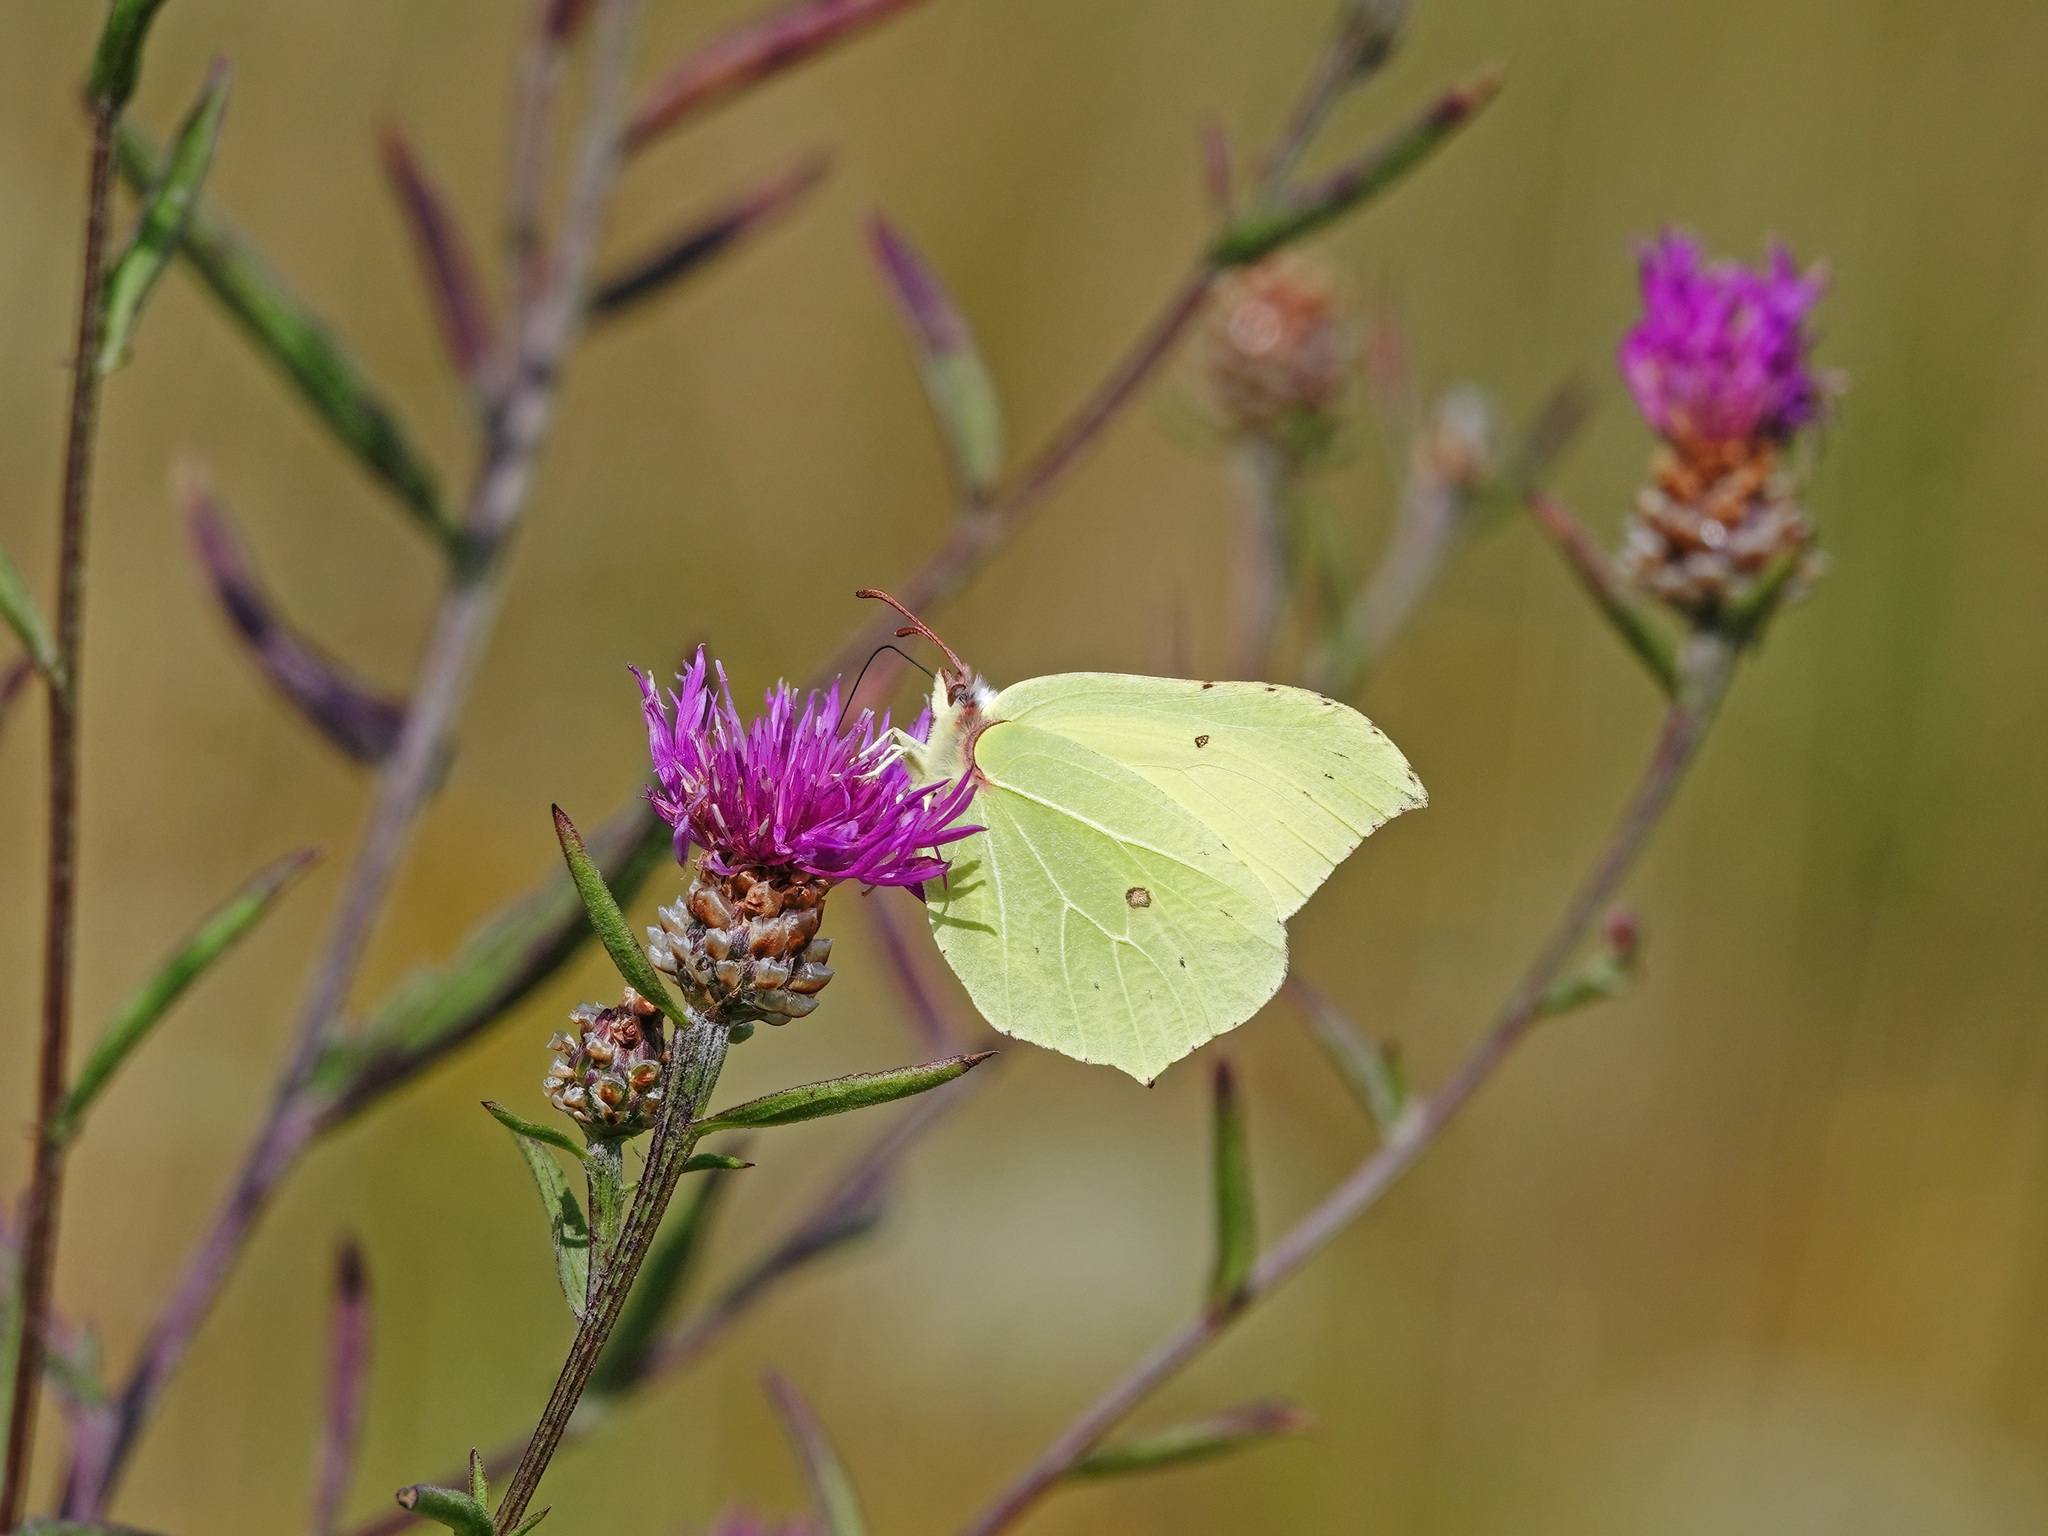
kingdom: Animalia
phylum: Arthropoda
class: Insecta
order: Lepidoptera
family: Pieridae
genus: Gonepteryx
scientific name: Gonepteryx rhamni
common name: Brimstone
